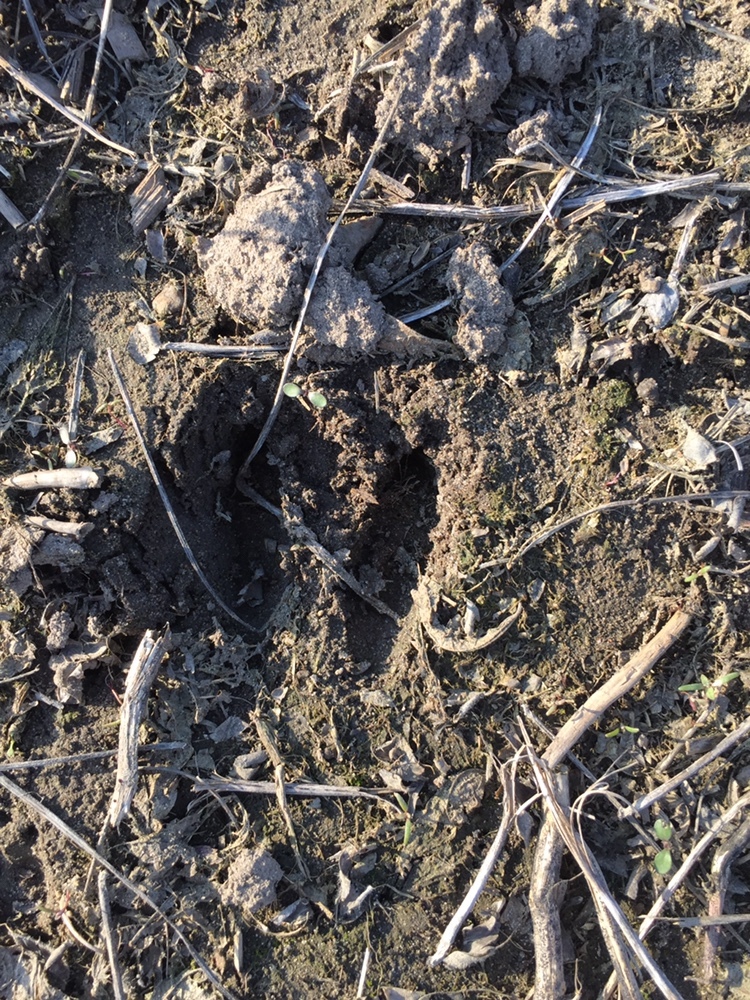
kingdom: Animalia
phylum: Chordata
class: Mammalia
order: Artiodactyla
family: Cervidae
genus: Odocoileus
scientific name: Odocoileus virginianus
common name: White-tailed deer
